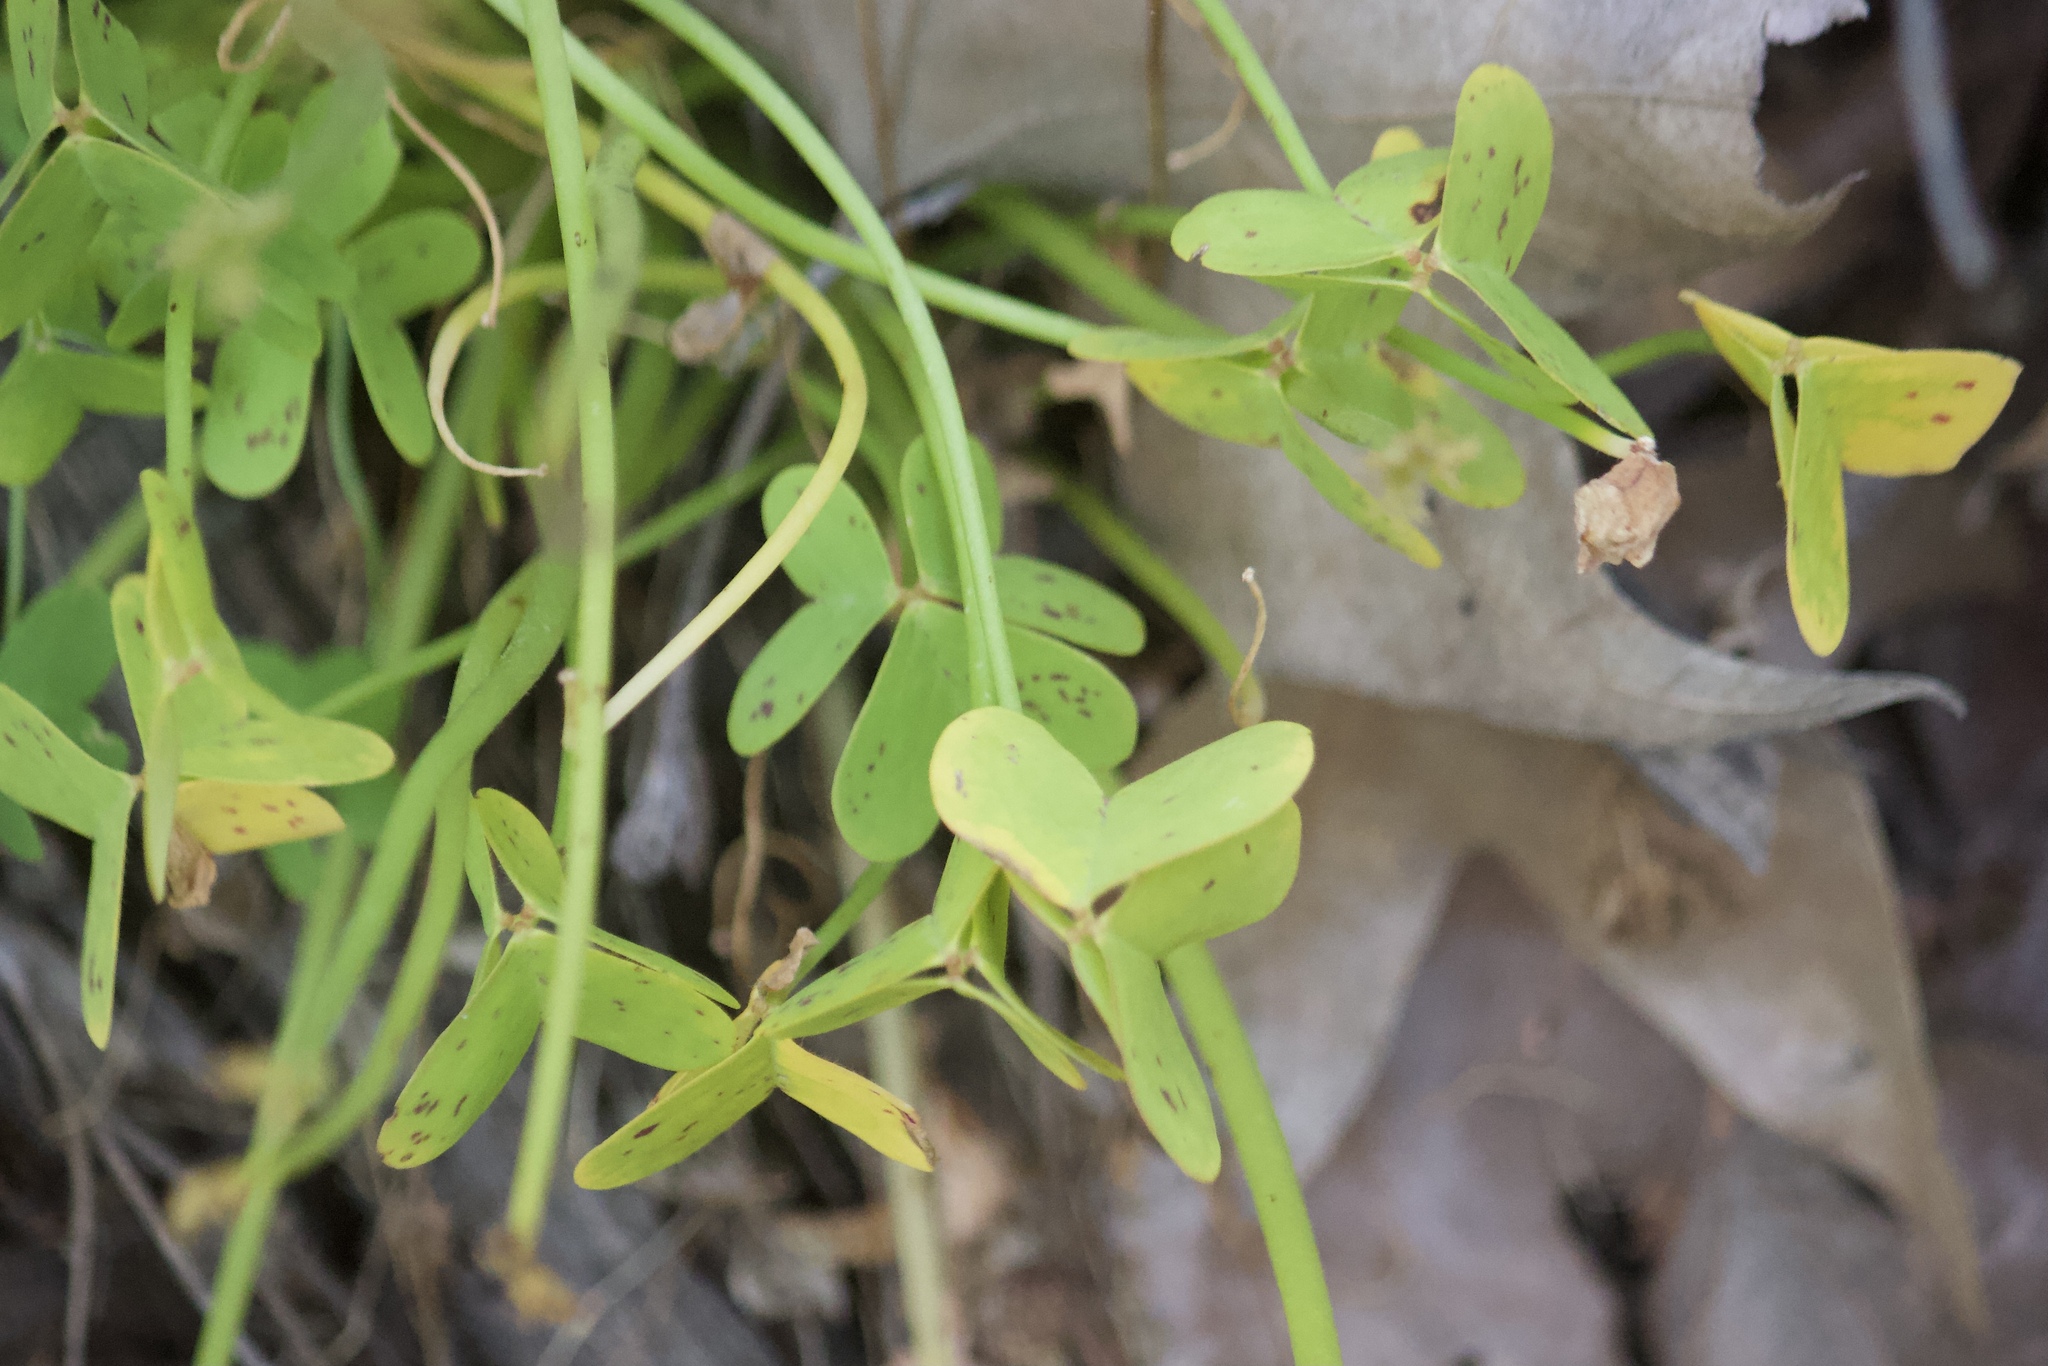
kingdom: Plantae
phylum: Tracheophyta
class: Magnoliopsida
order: Oxalidales
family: Oxalidaceae
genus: Oxalis
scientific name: Oxalis pes-caprae
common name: Bermuda-buttercup
